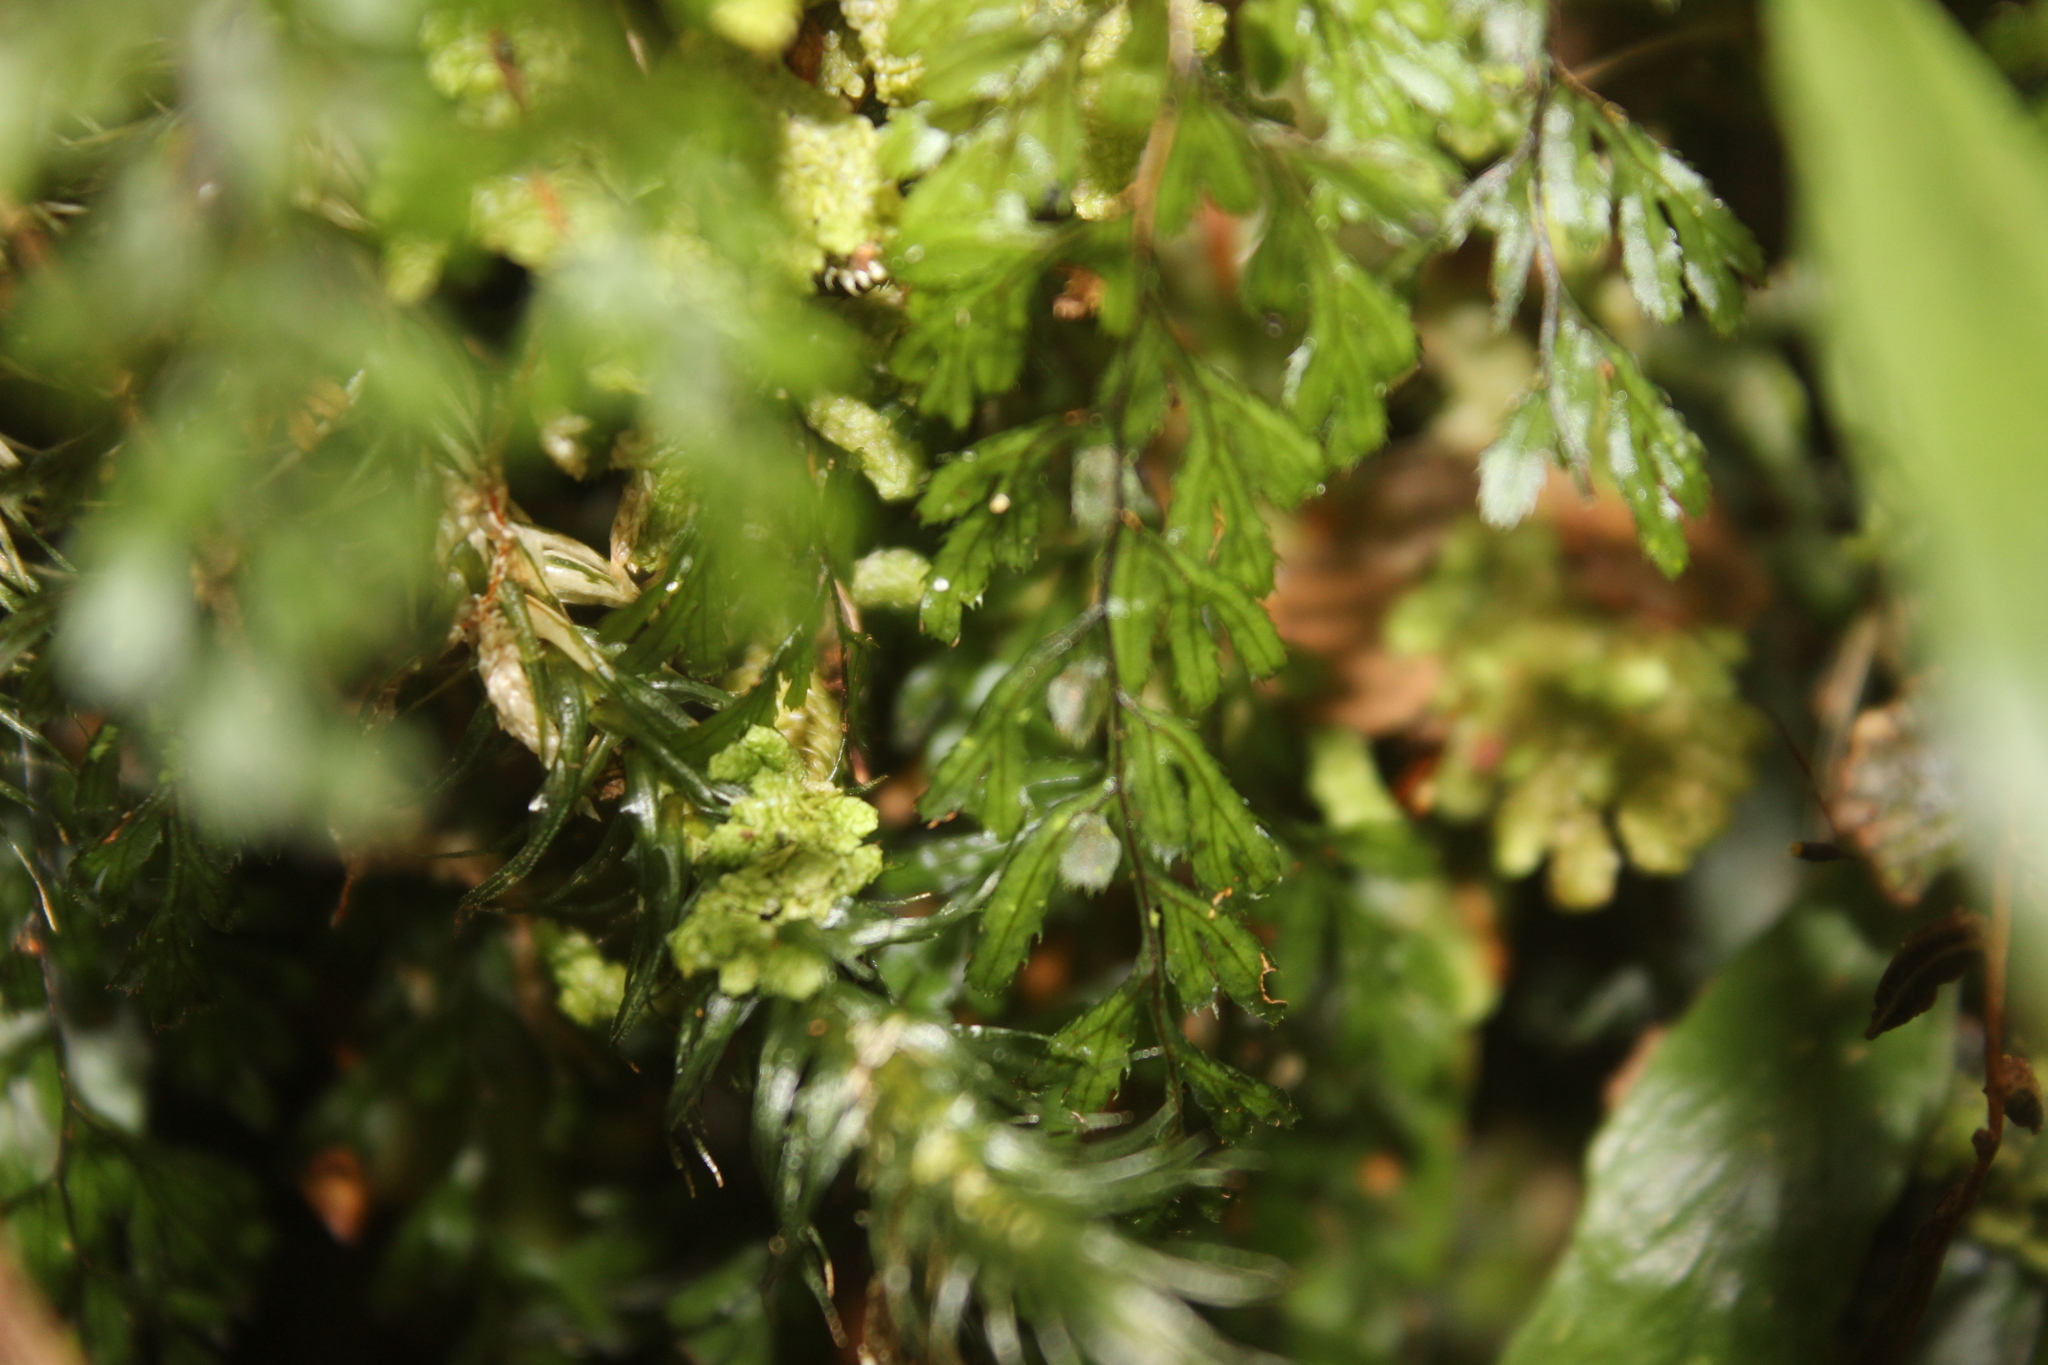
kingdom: Plantae
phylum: Tracheophyta
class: Polypodiopsida
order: Hymenophyllales
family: Hymenophyllaceae
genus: Hymenophyllum
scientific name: Hymenophyllum revolutum
